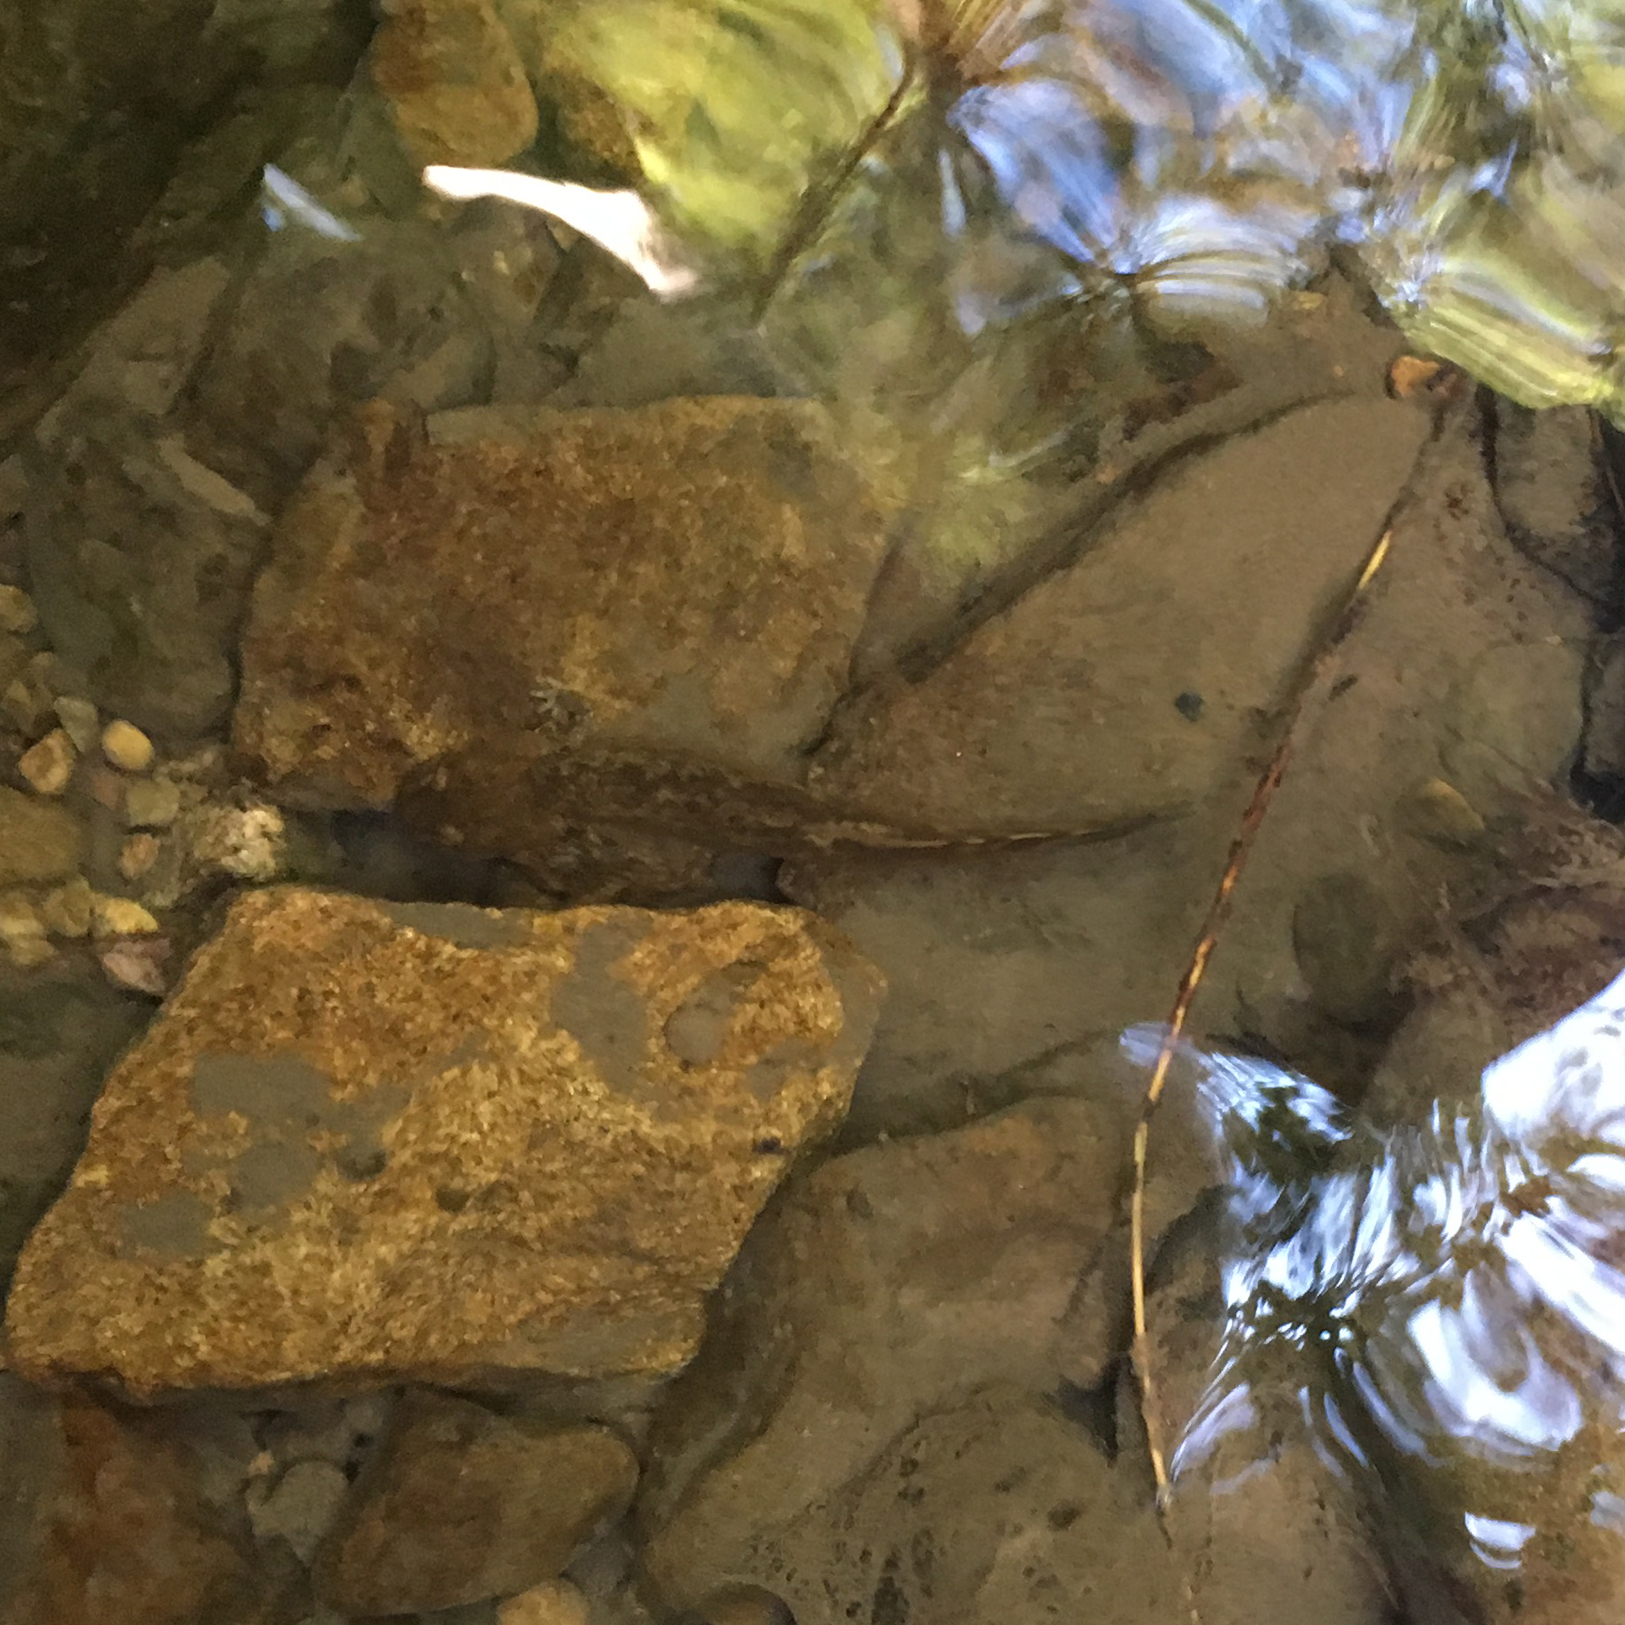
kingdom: Animalia
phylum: Chordata
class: Amphibia
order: Caudata
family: Ambystomatidae
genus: Dicamptodon
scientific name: Dicamptodon tenebrosus
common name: Coastal giant salamander
